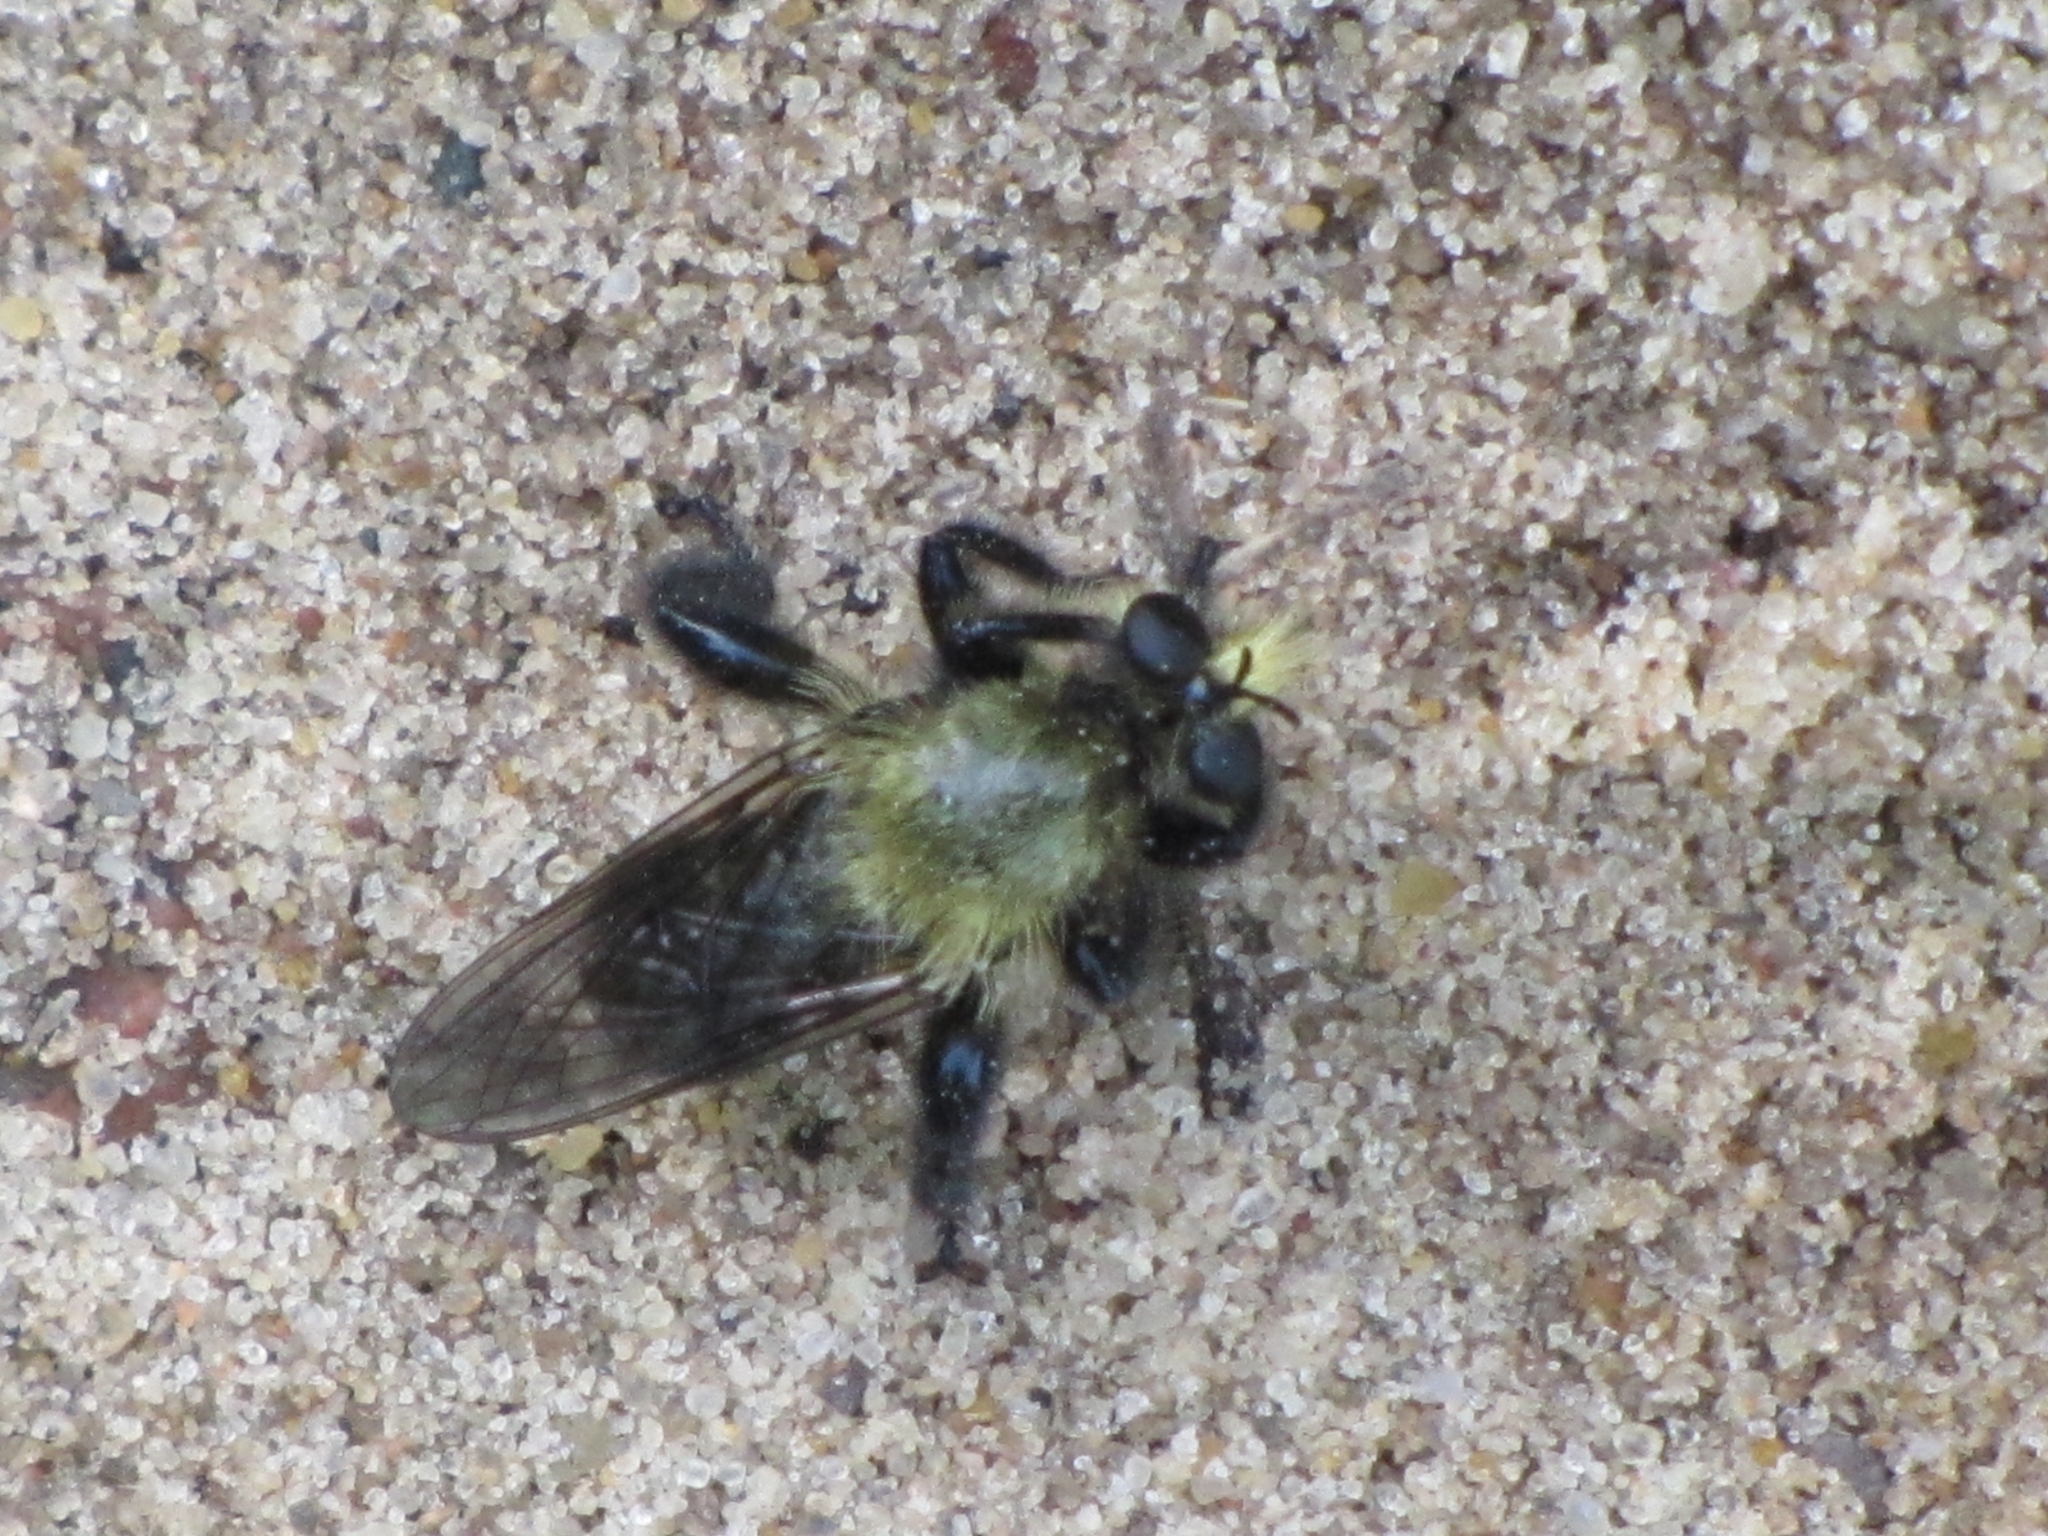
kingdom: Animalia
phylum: Arthropoda
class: Insecta
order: Diptera
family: Asilidae
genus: Laphria
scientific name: Laphria flavicollis
